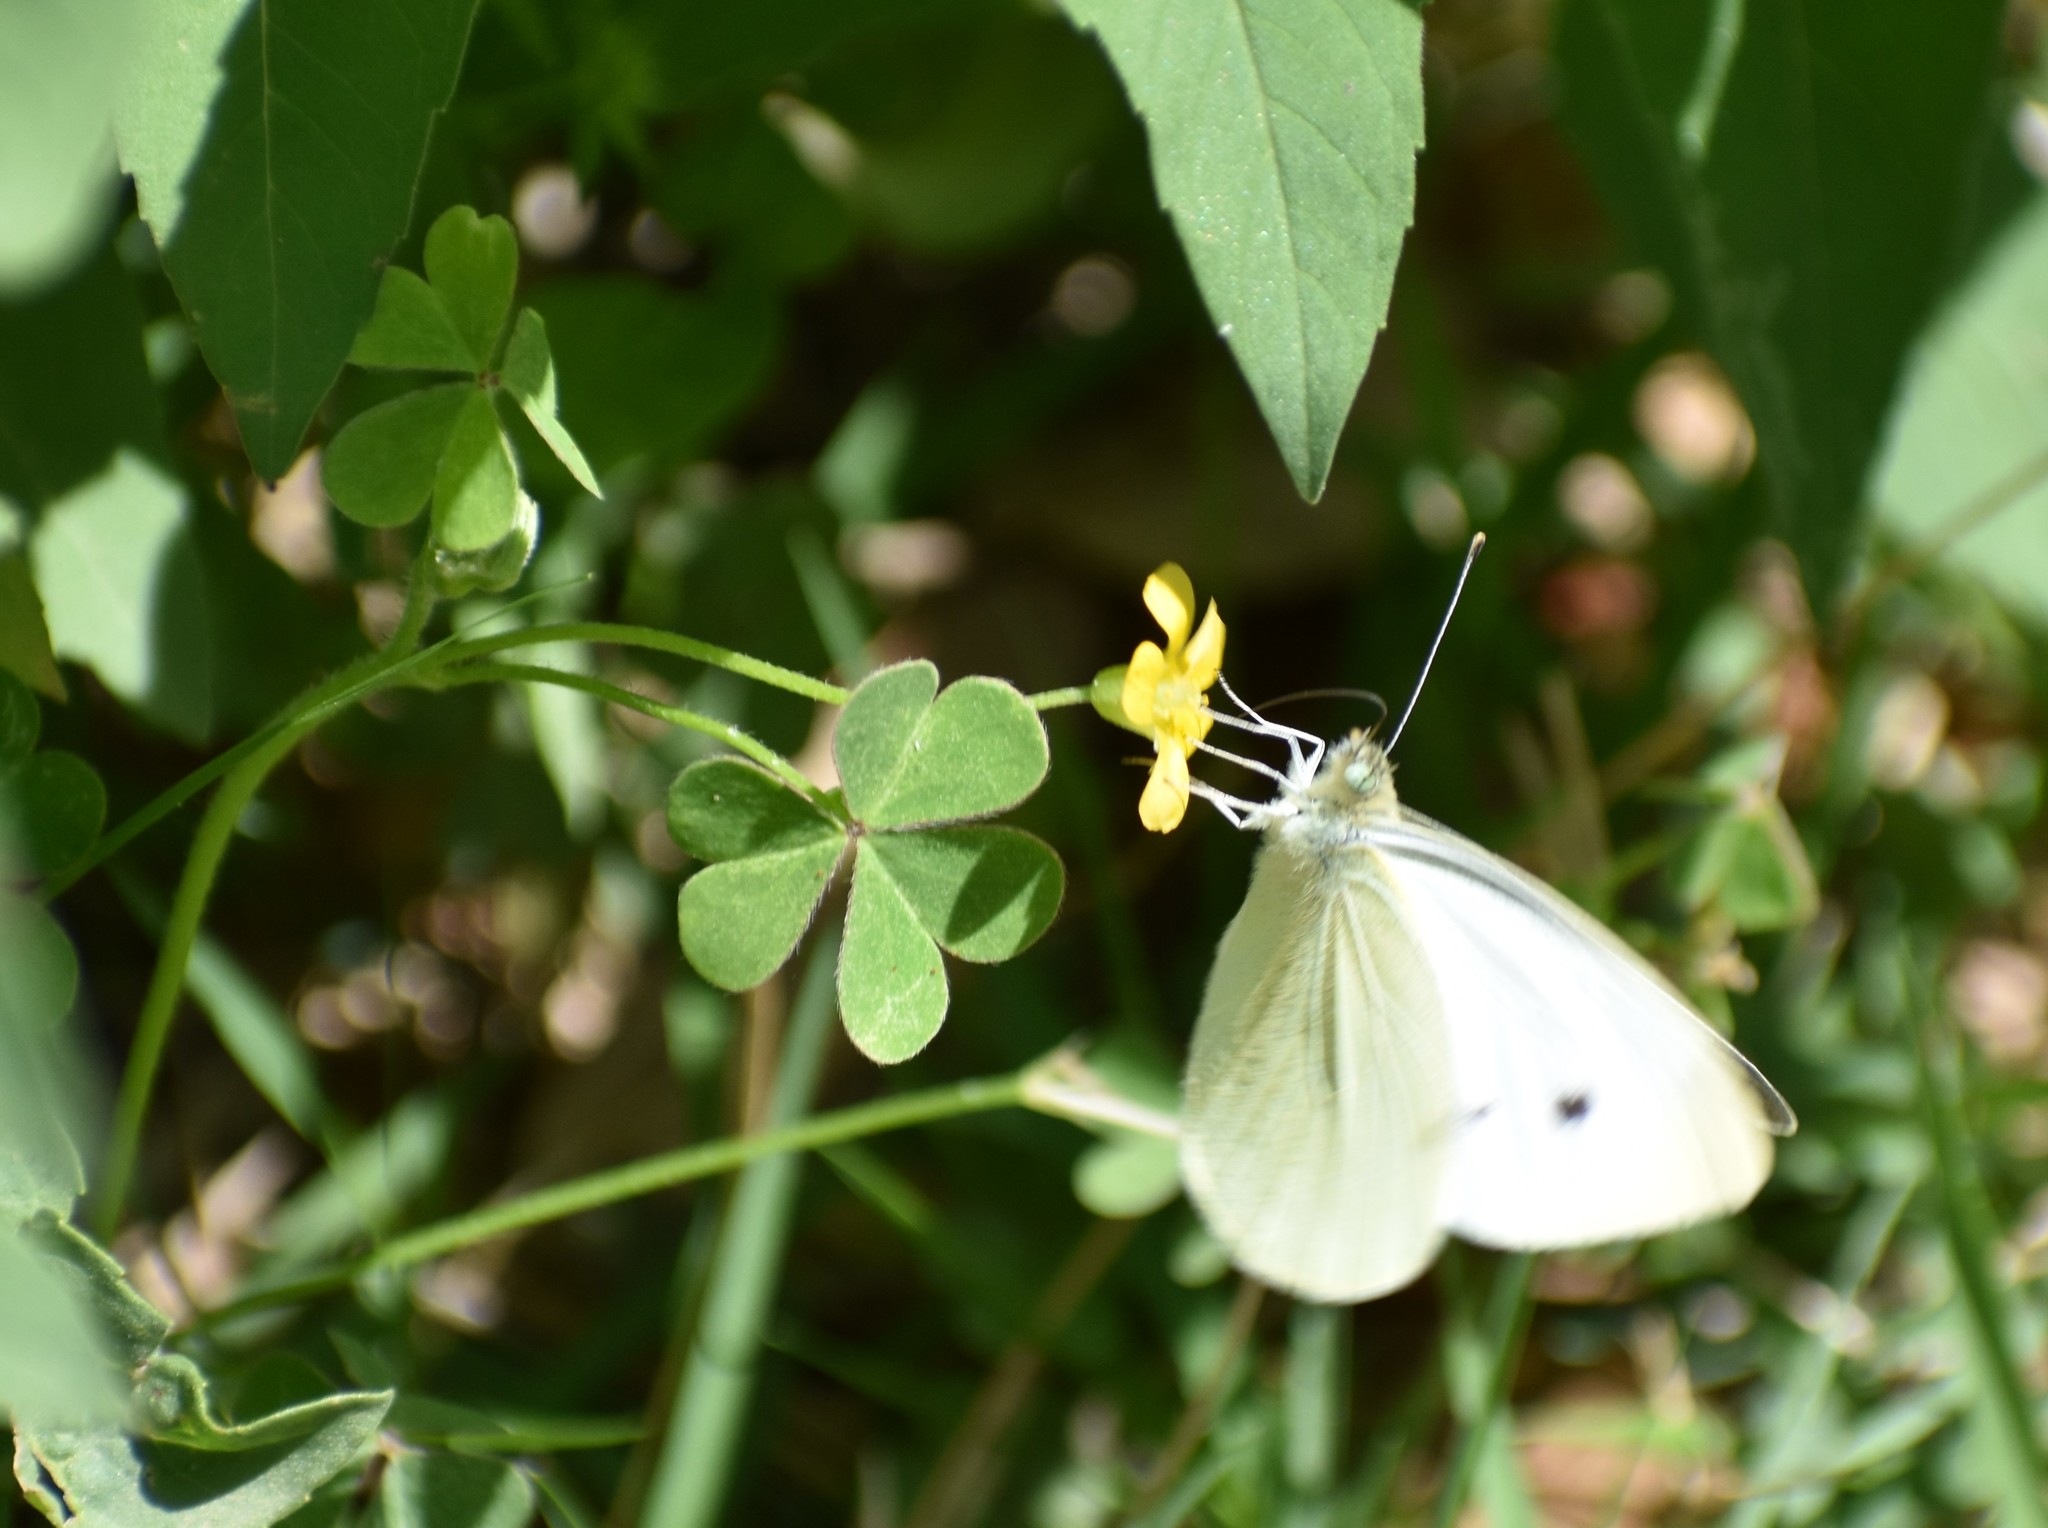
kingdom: Animalia
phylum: Arthropoda
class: Insecta
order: Lepidoptera
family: Pieridae
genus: Pieris
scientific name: Pieris rapae
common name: Small white
